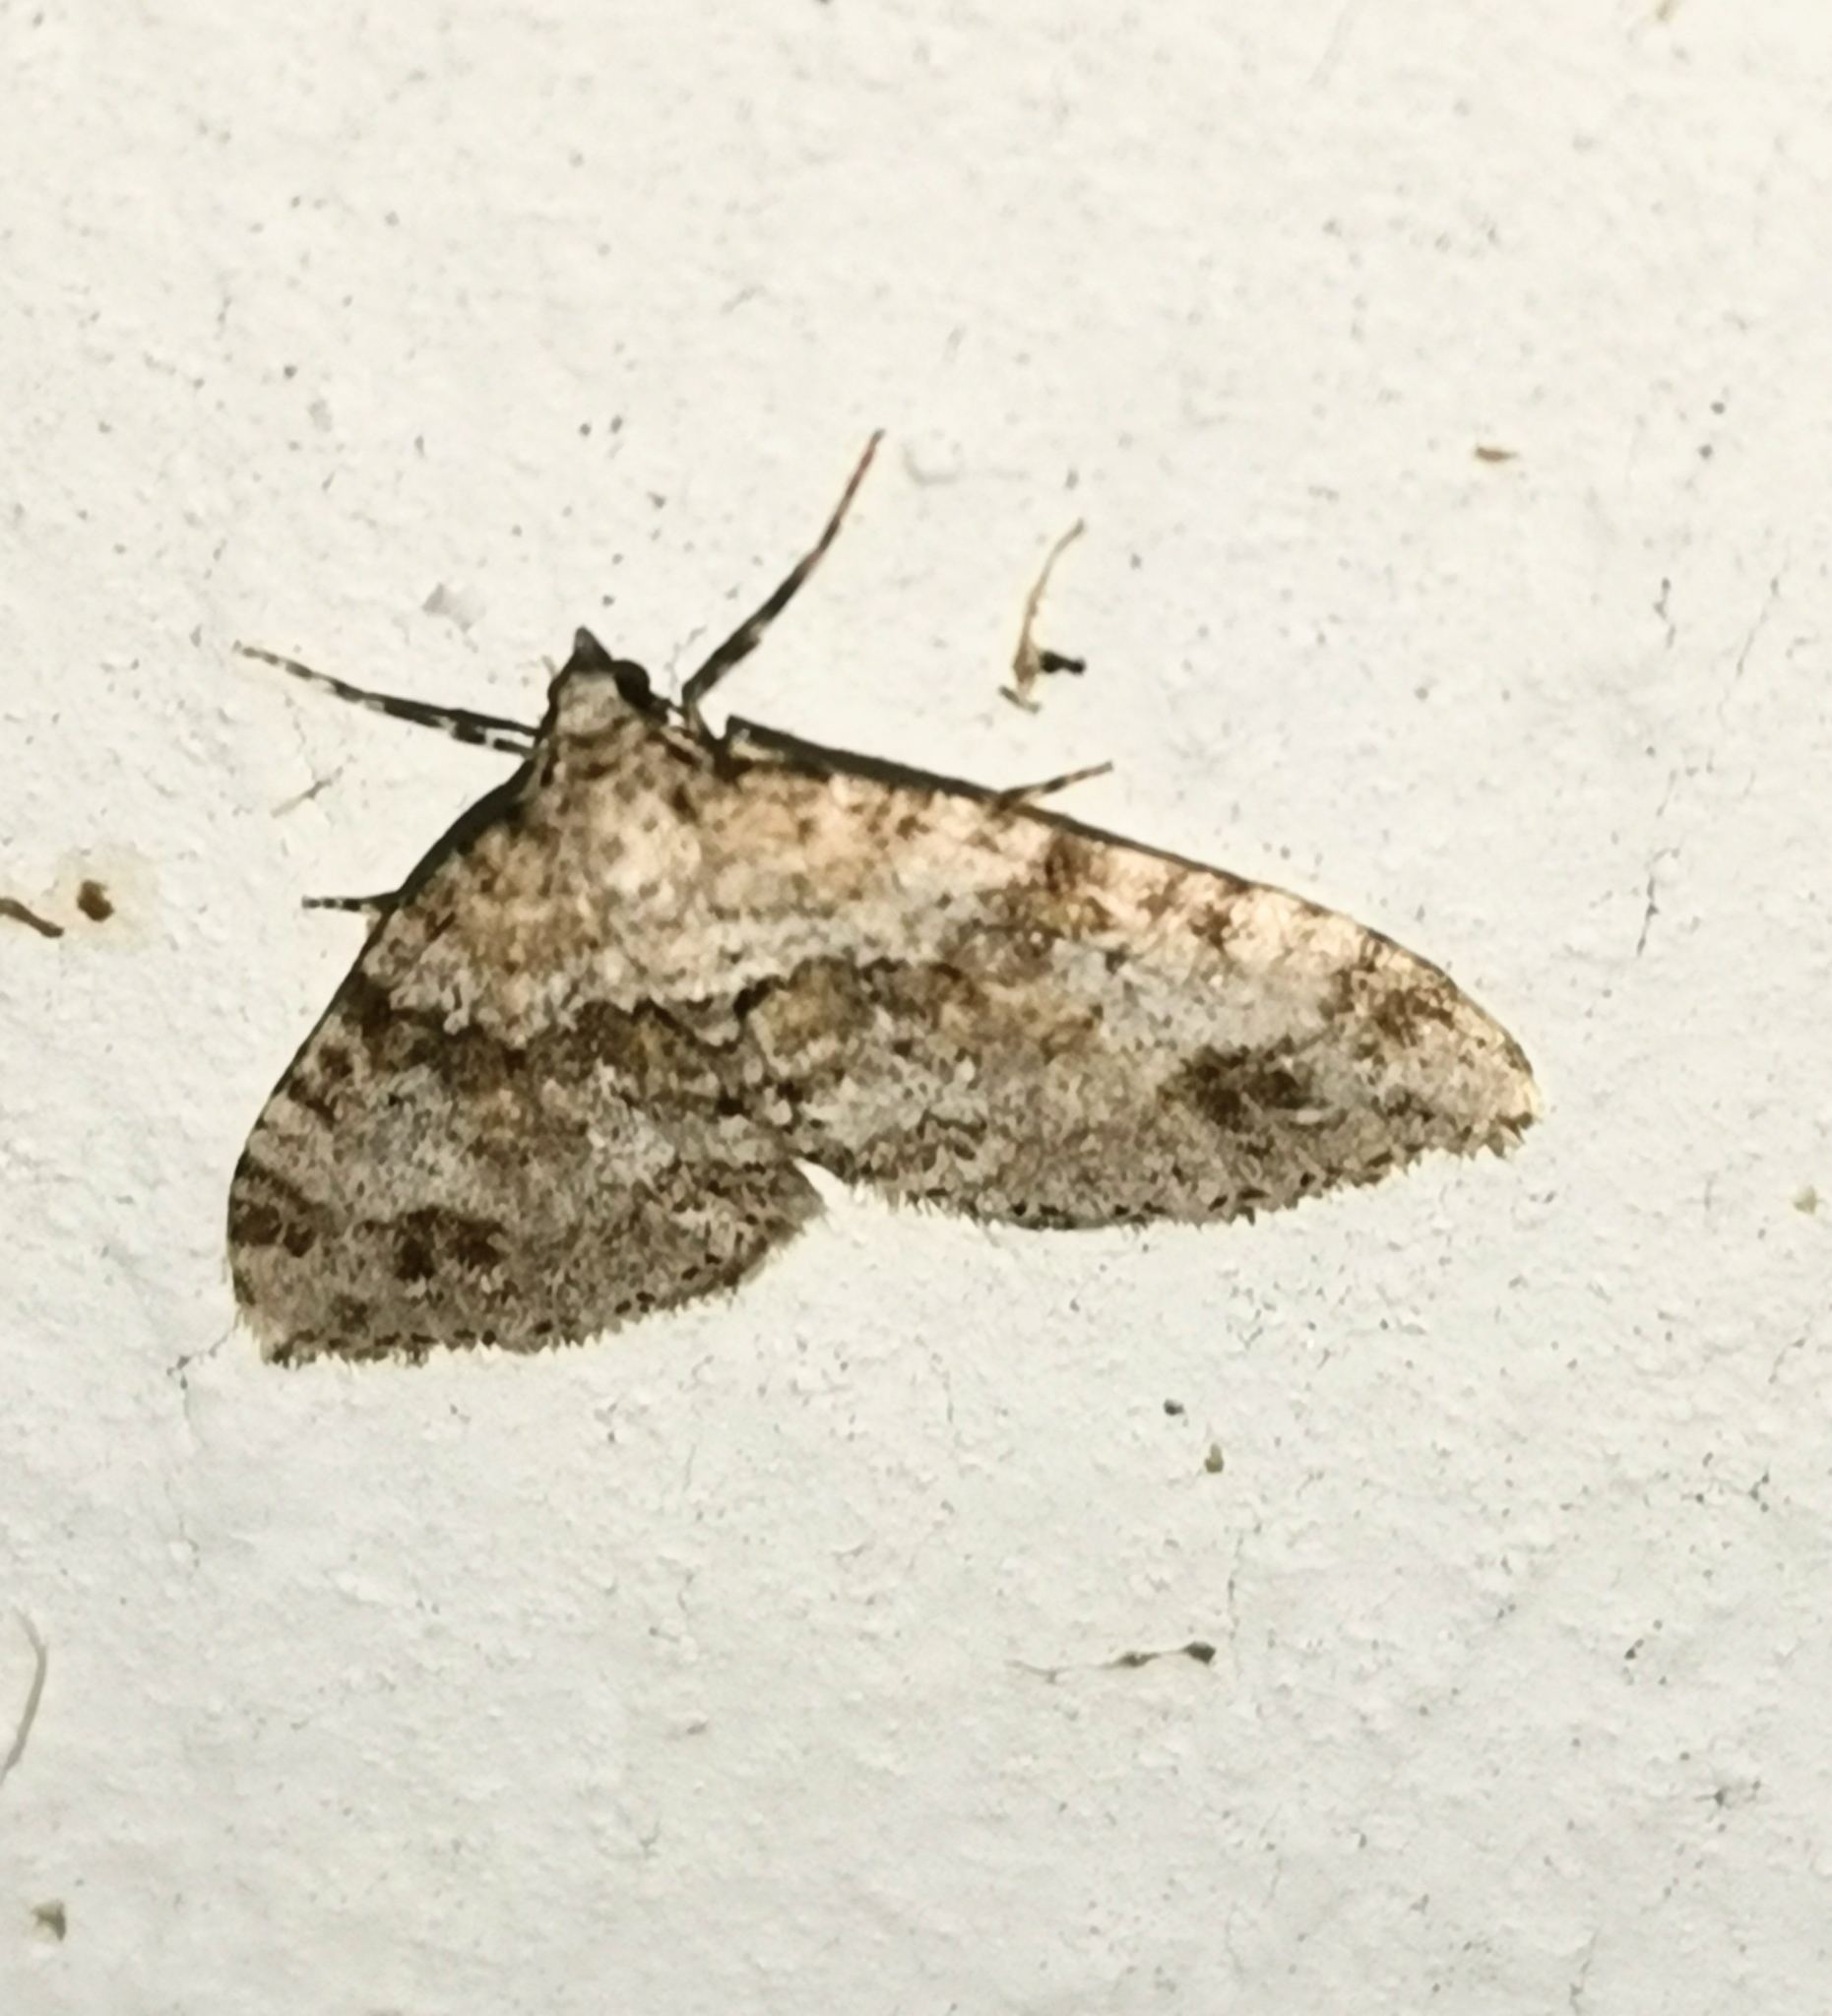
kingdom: Animalia
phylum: Arthropoda
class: Insecta
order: Lepidoptera
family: Geometridae
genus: Perizoma
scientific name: Perizoma didymata
